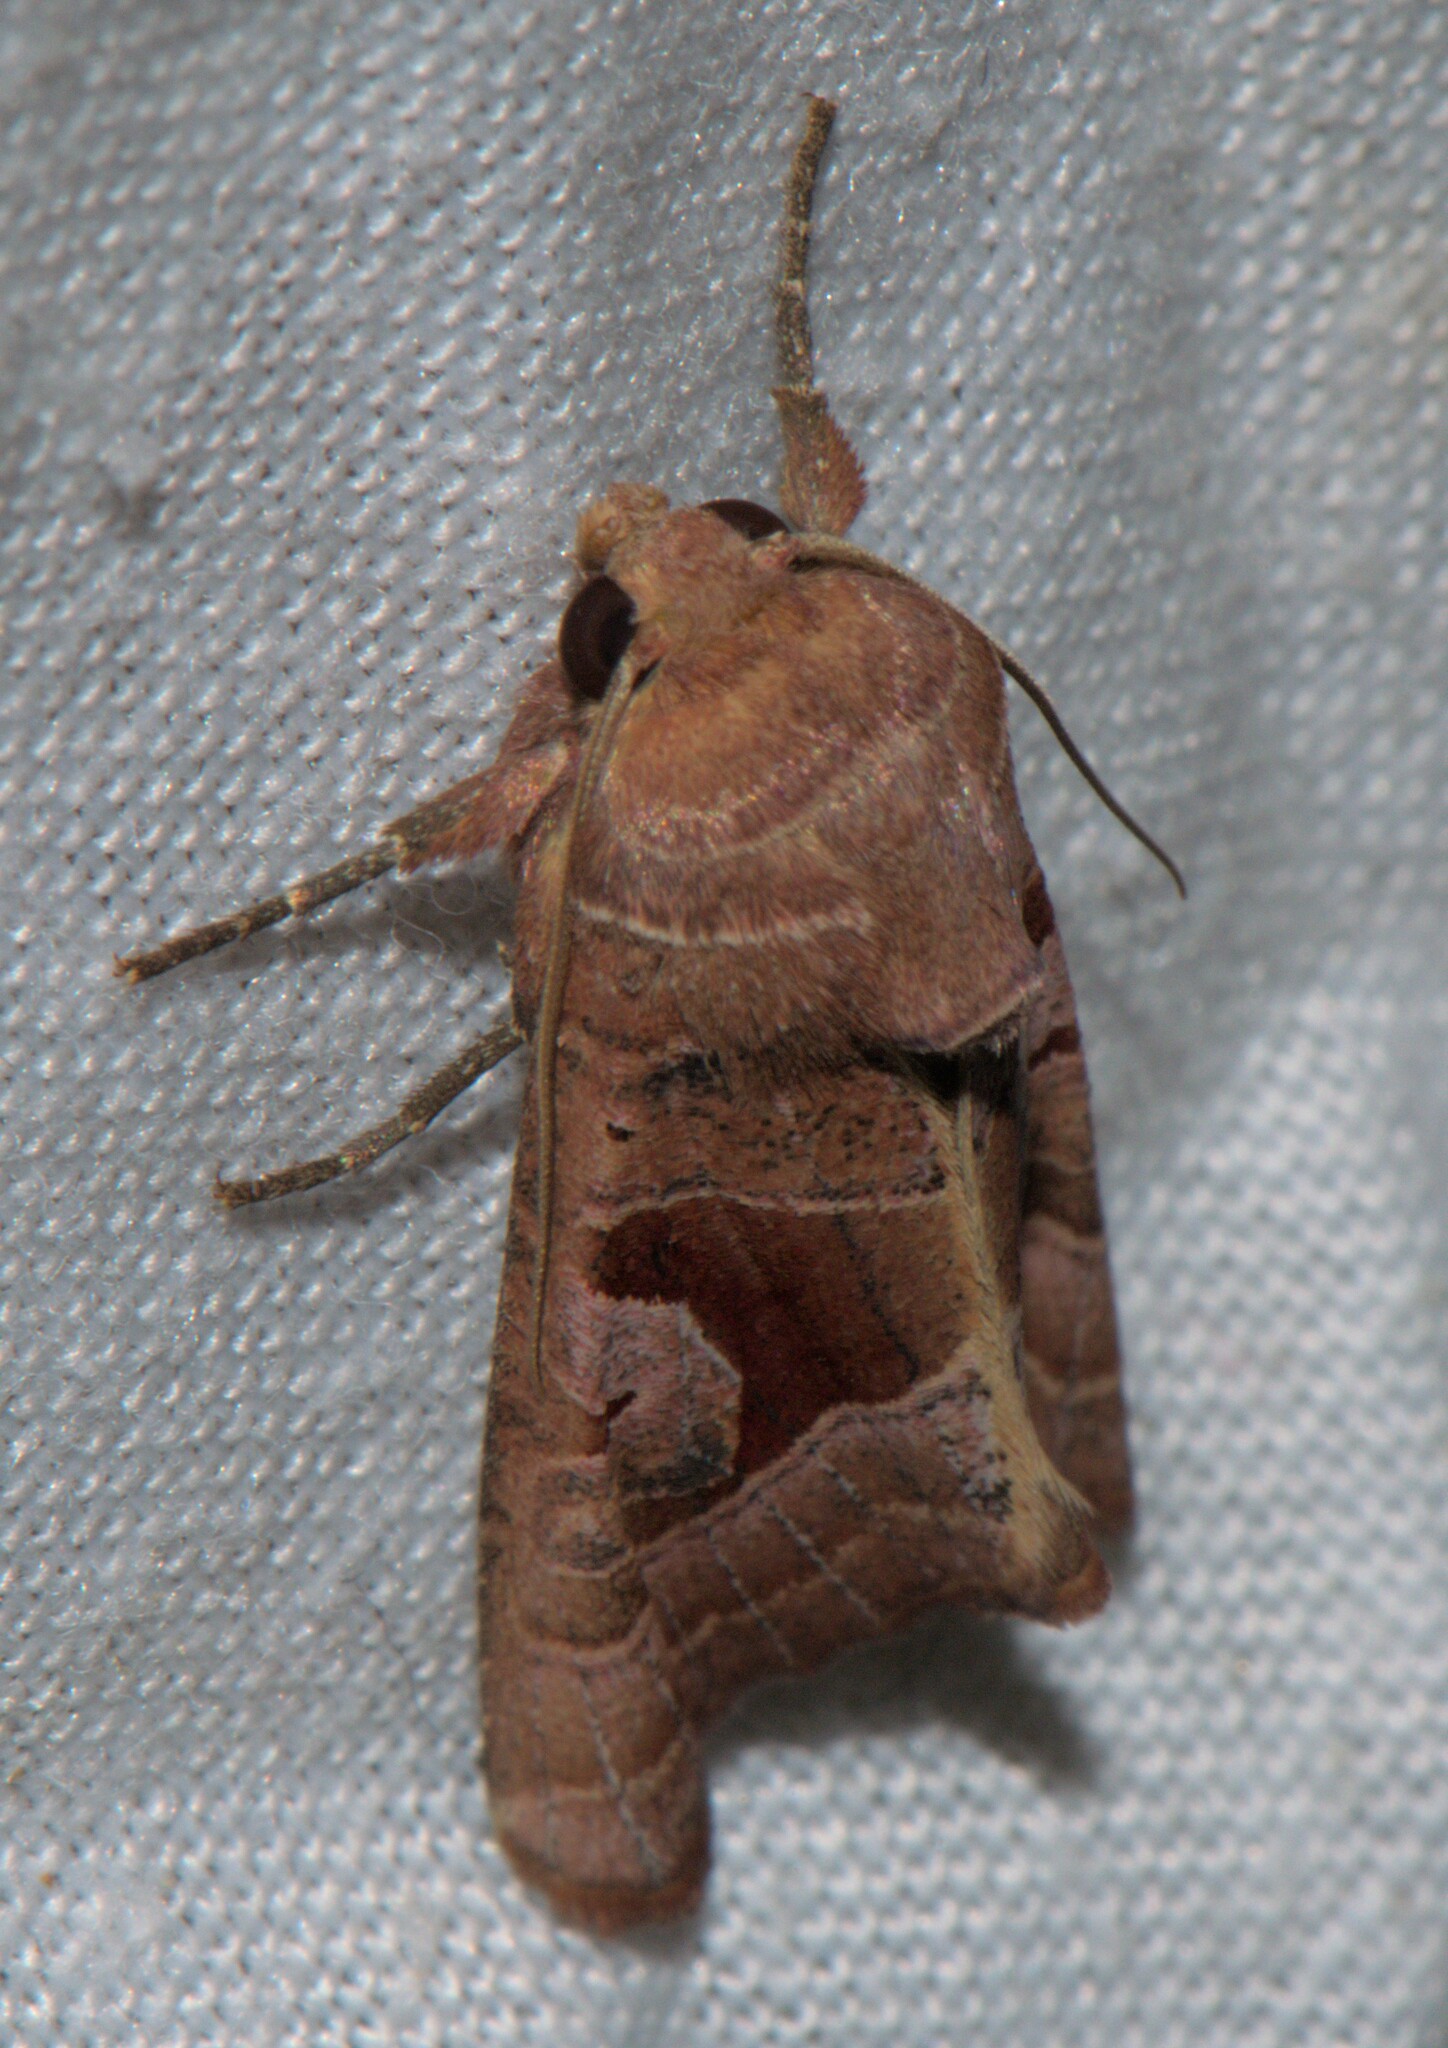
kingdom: Animalia
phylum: Arthropoda
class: Insecta
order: Lepidoptera
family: Noctuidae
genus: Conservula
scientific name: Conservula indica
